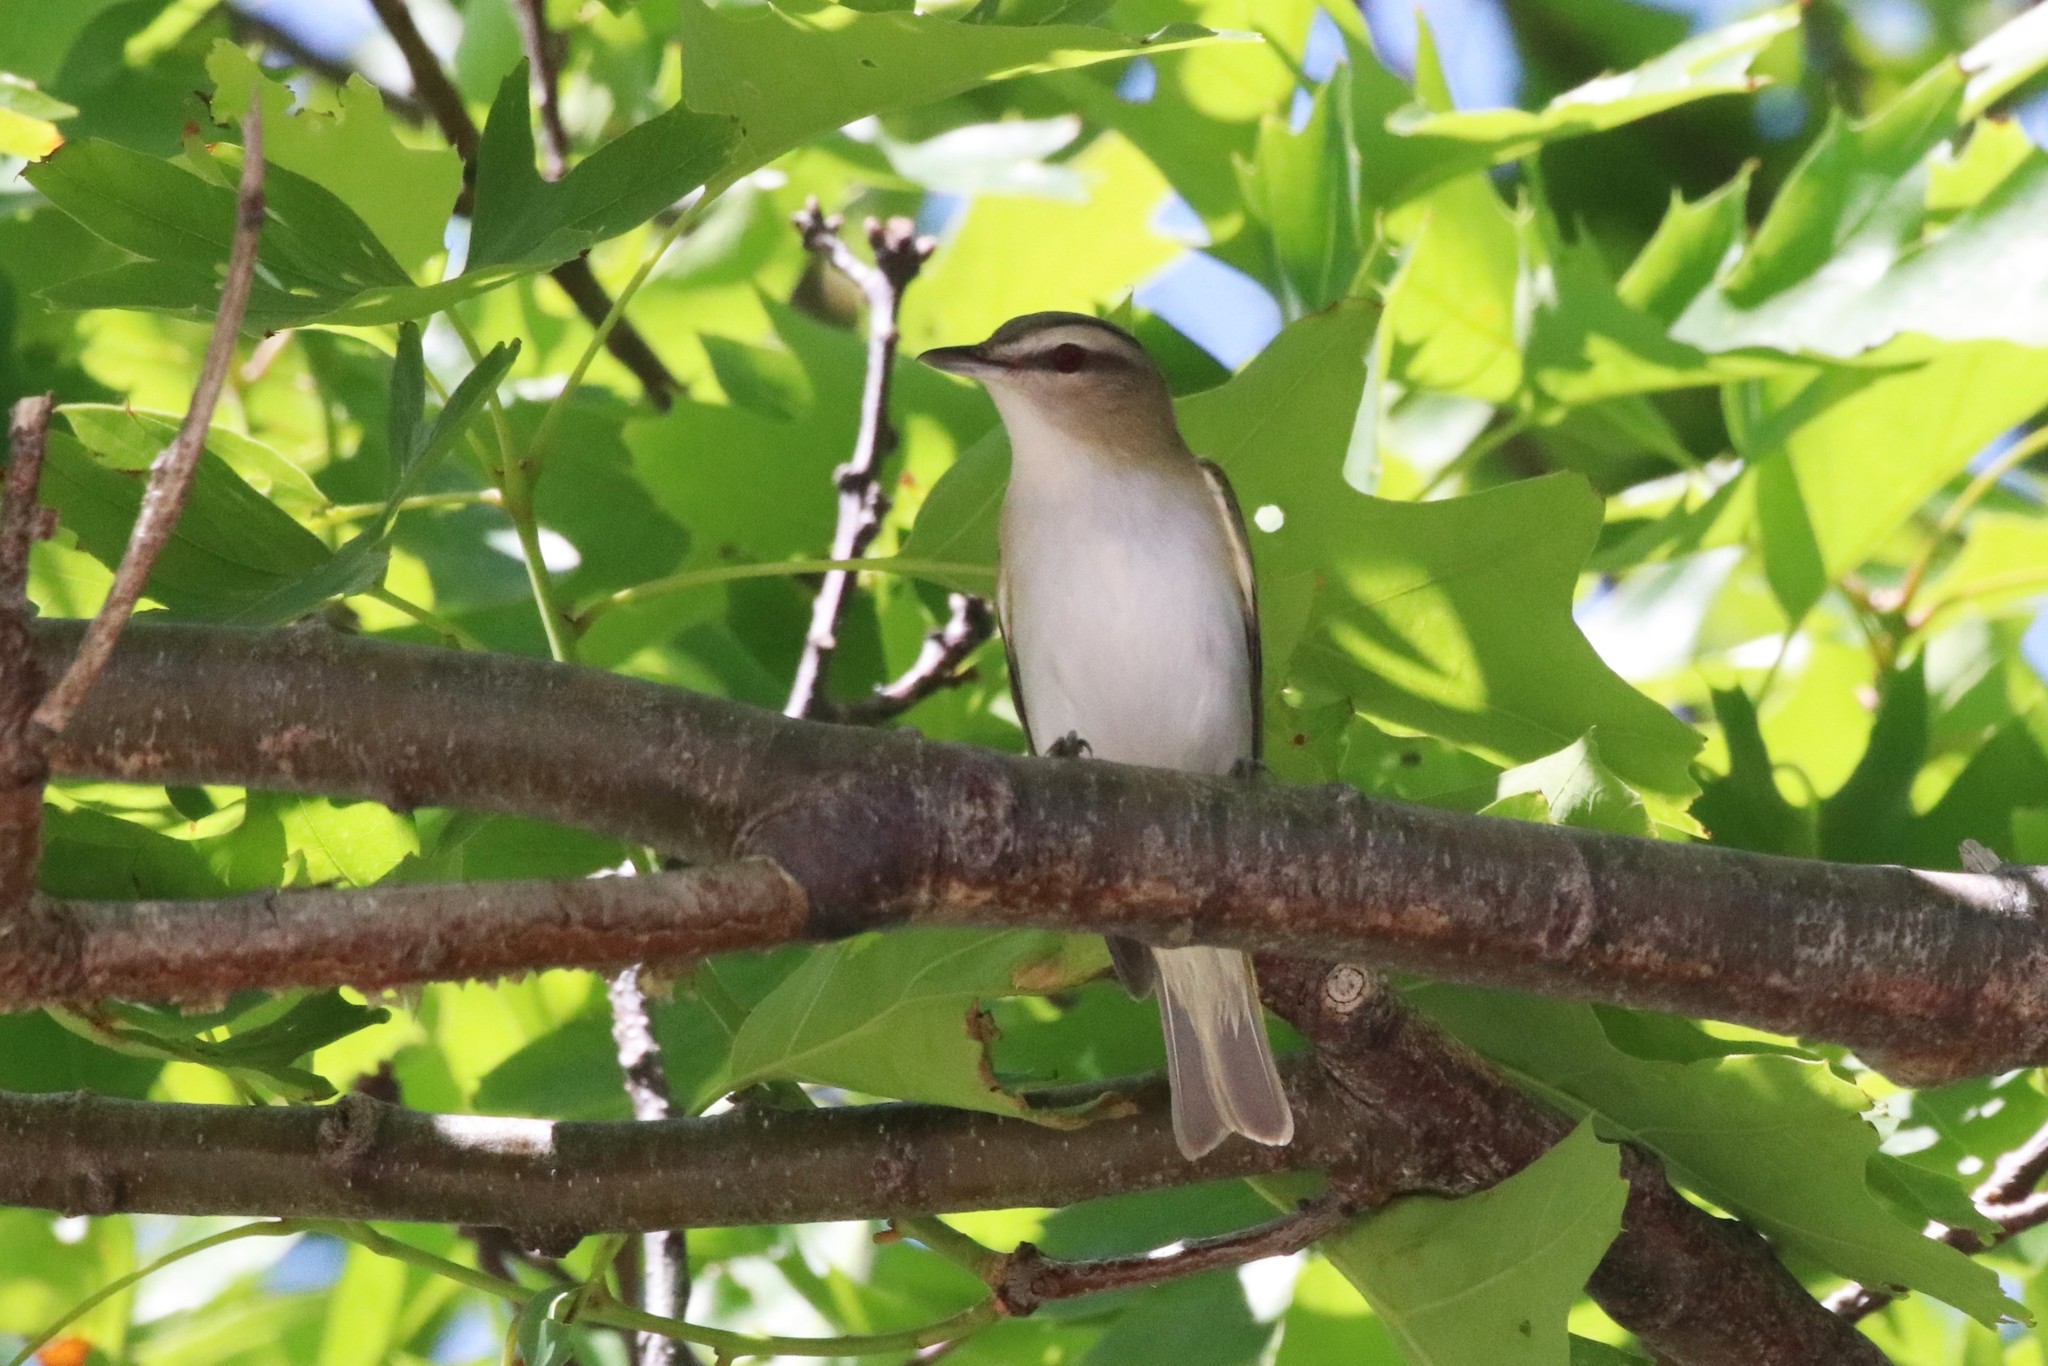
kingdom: Animalia
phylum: Chordata
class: Aves
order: Passeriformes
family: Vireonidae
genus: Vireo
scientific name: Vireo olivaceus
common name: Red-eyed vireo
